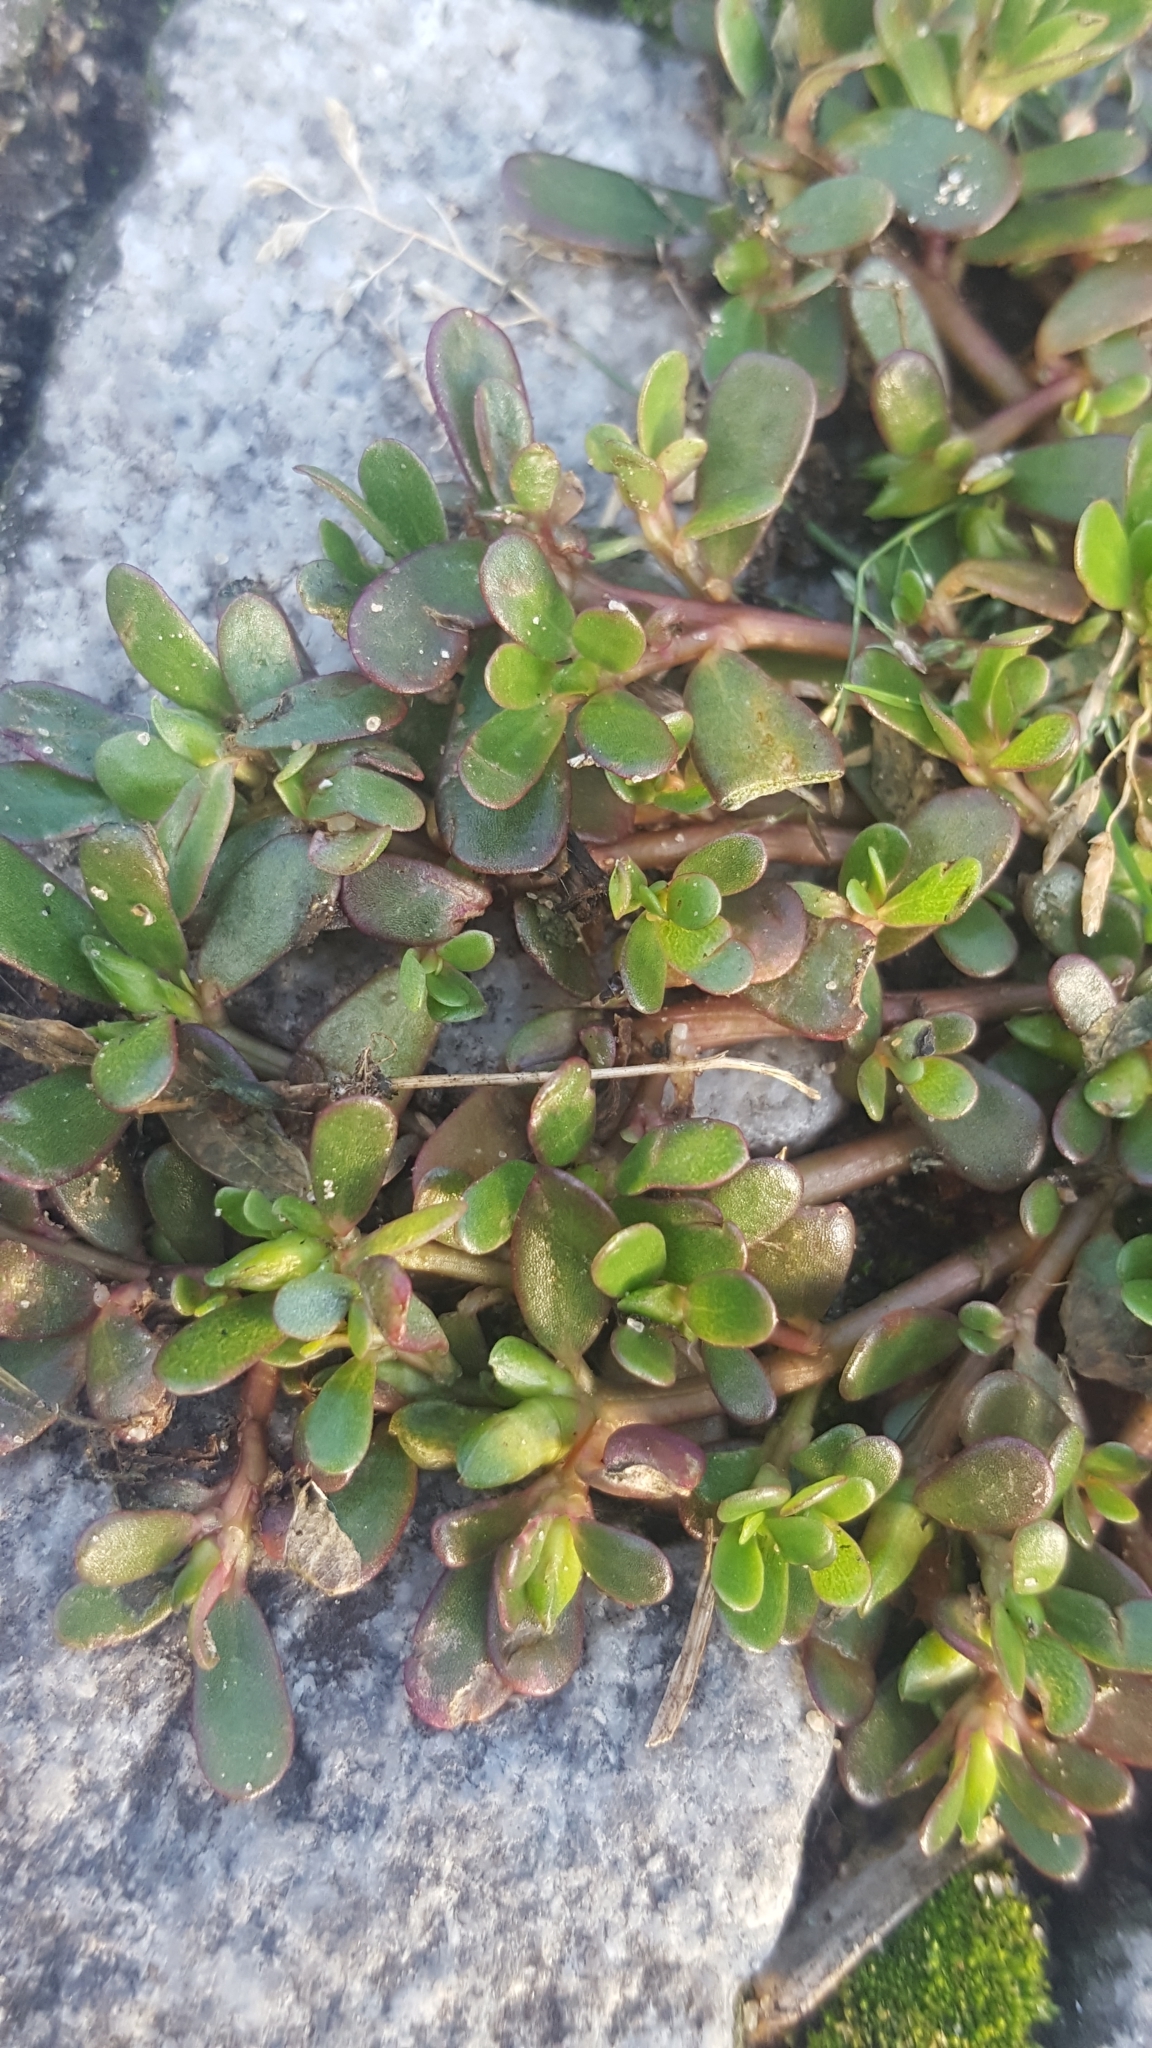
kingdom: Plantae
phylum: Tracheophyta
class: Magnoliopsida
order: Caryophyllales
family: Portulacaceae
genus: Portulaca
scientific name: Portulaca oleracea
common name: Common purslane
